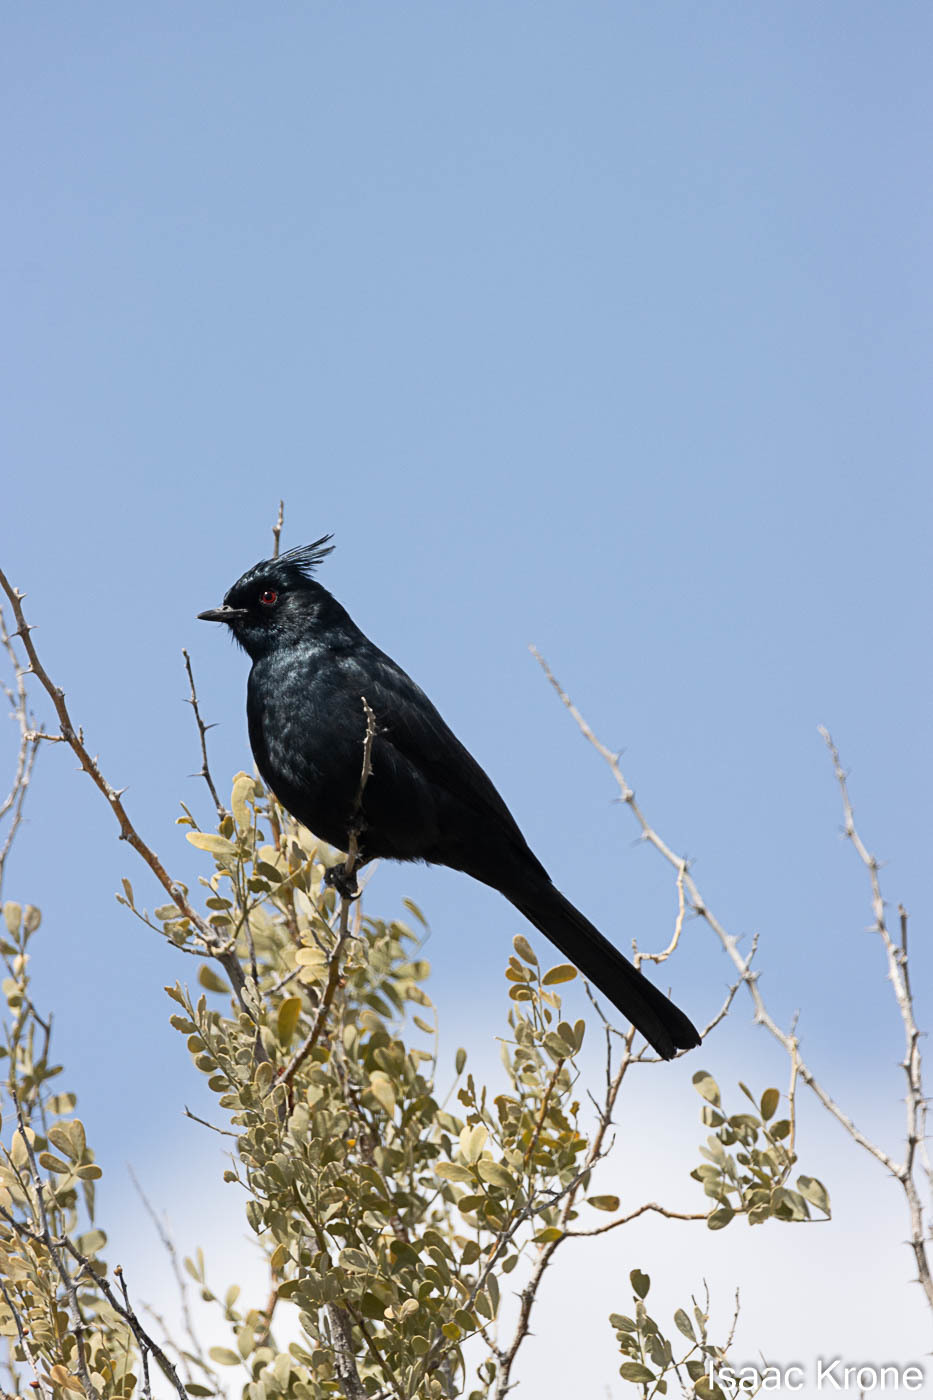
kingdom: Animalia
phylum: Chordata
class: Aves
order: Passeriformes
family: Ptilogonatidae
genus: Phainopepla
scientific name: Phainopepla nitens
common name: Phainopepla
